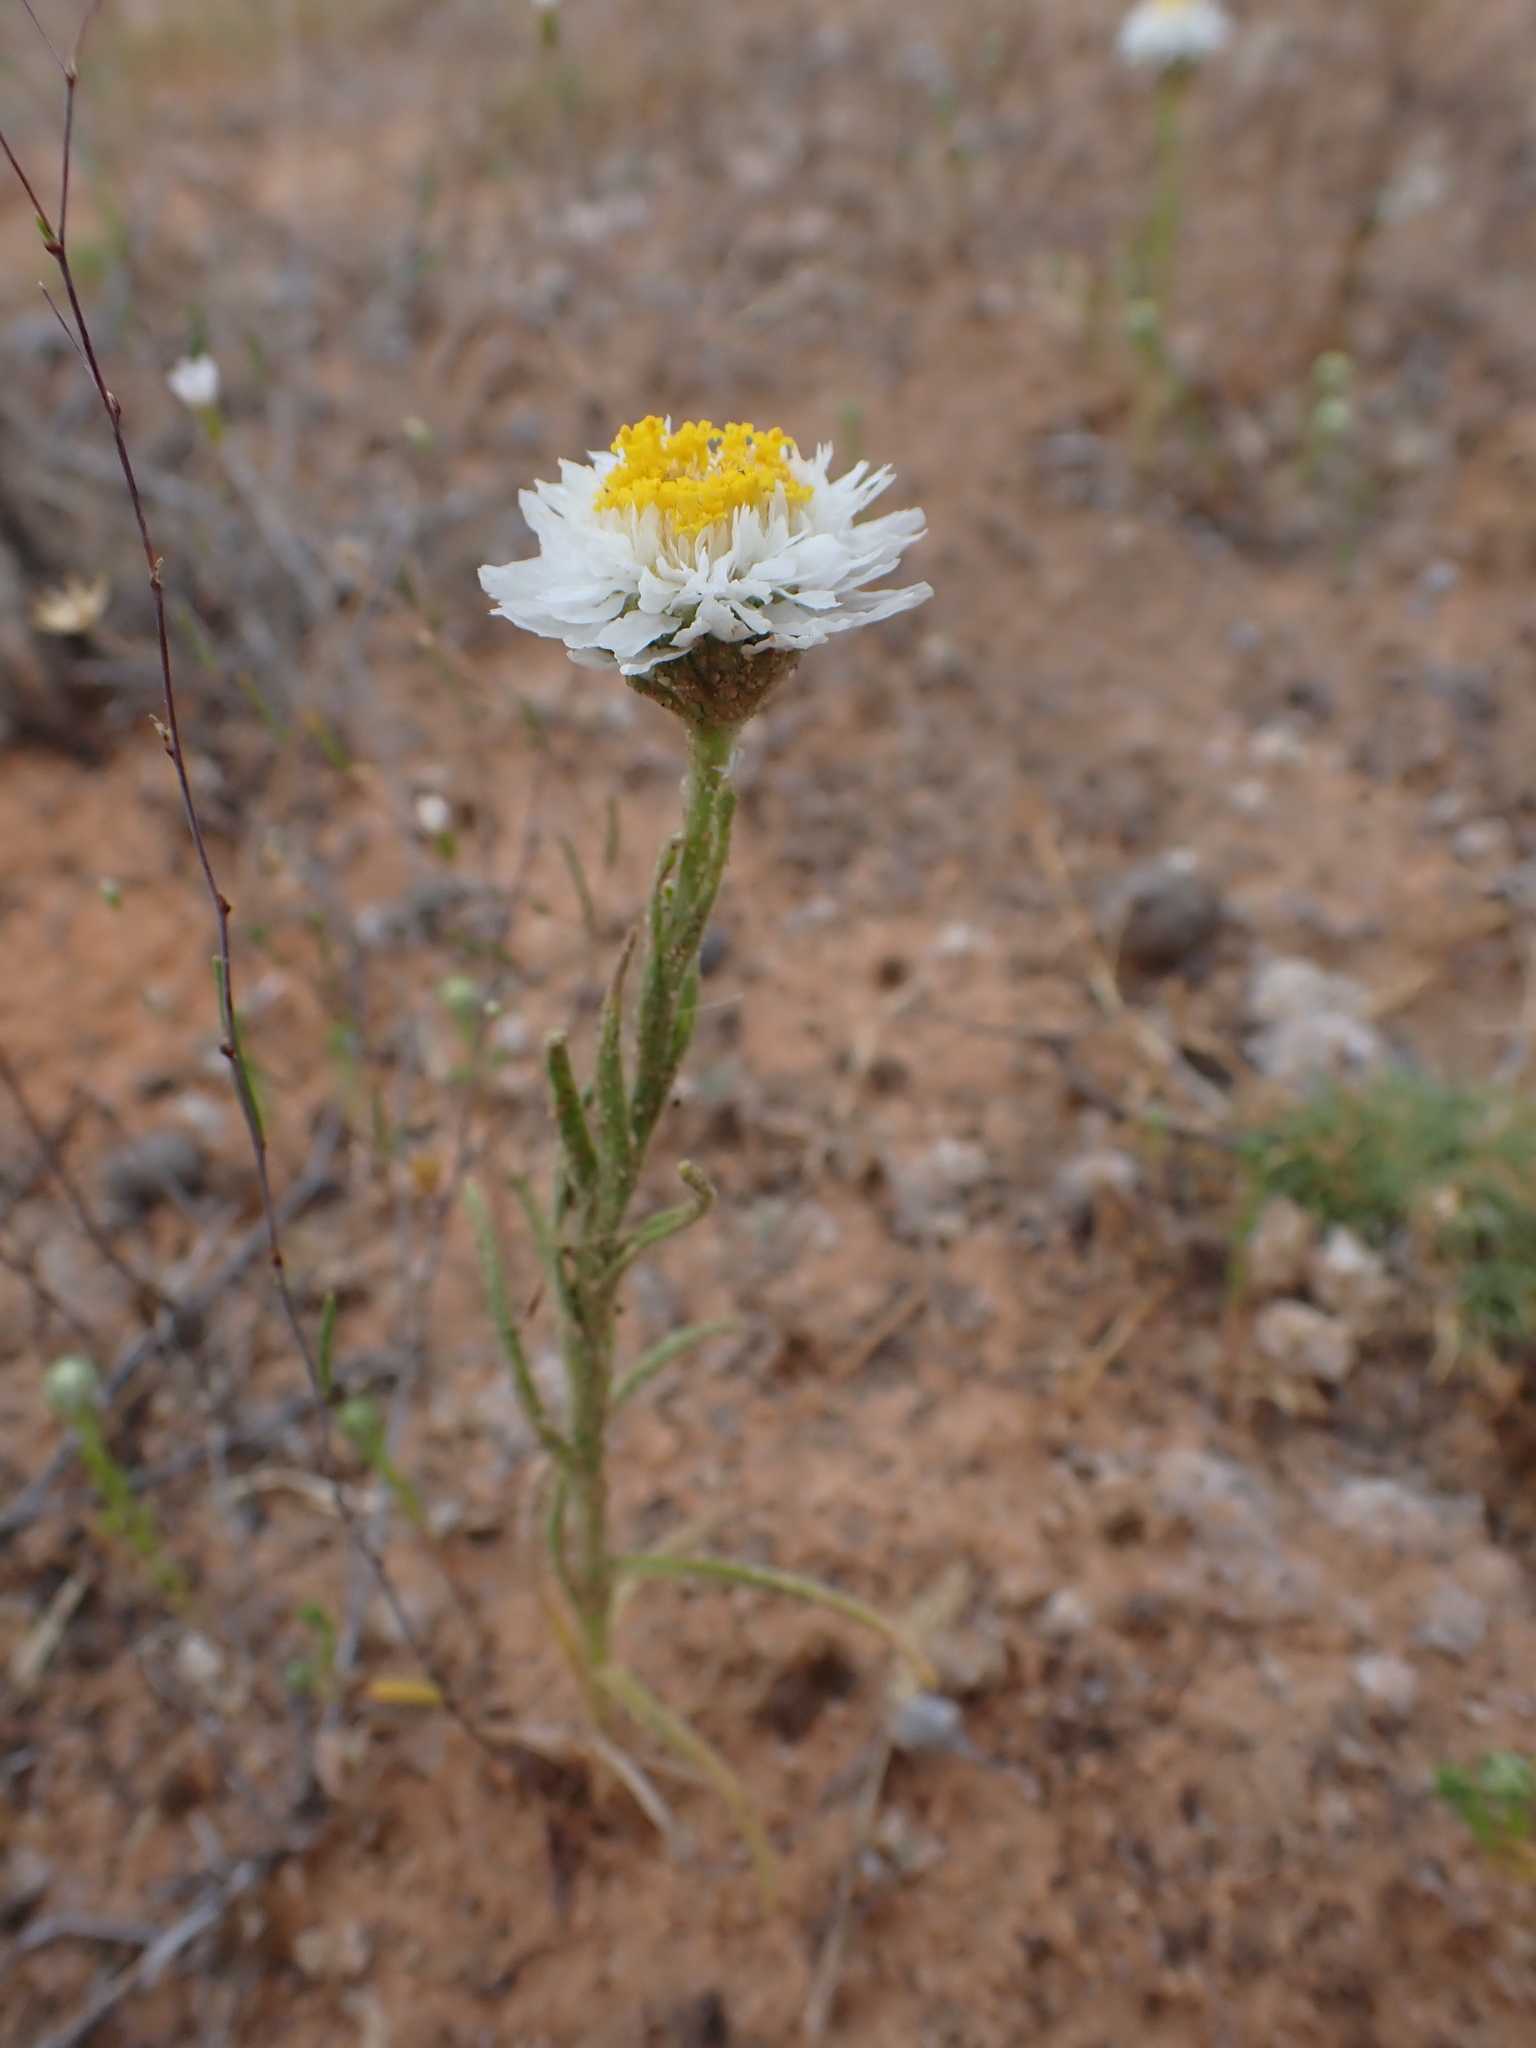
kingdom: Plantae
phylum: Tracheophyta
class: Magnoliopsida
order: Asterales
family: Asteraceae
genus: Polycalymma
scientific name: Polycalymma stuartii
